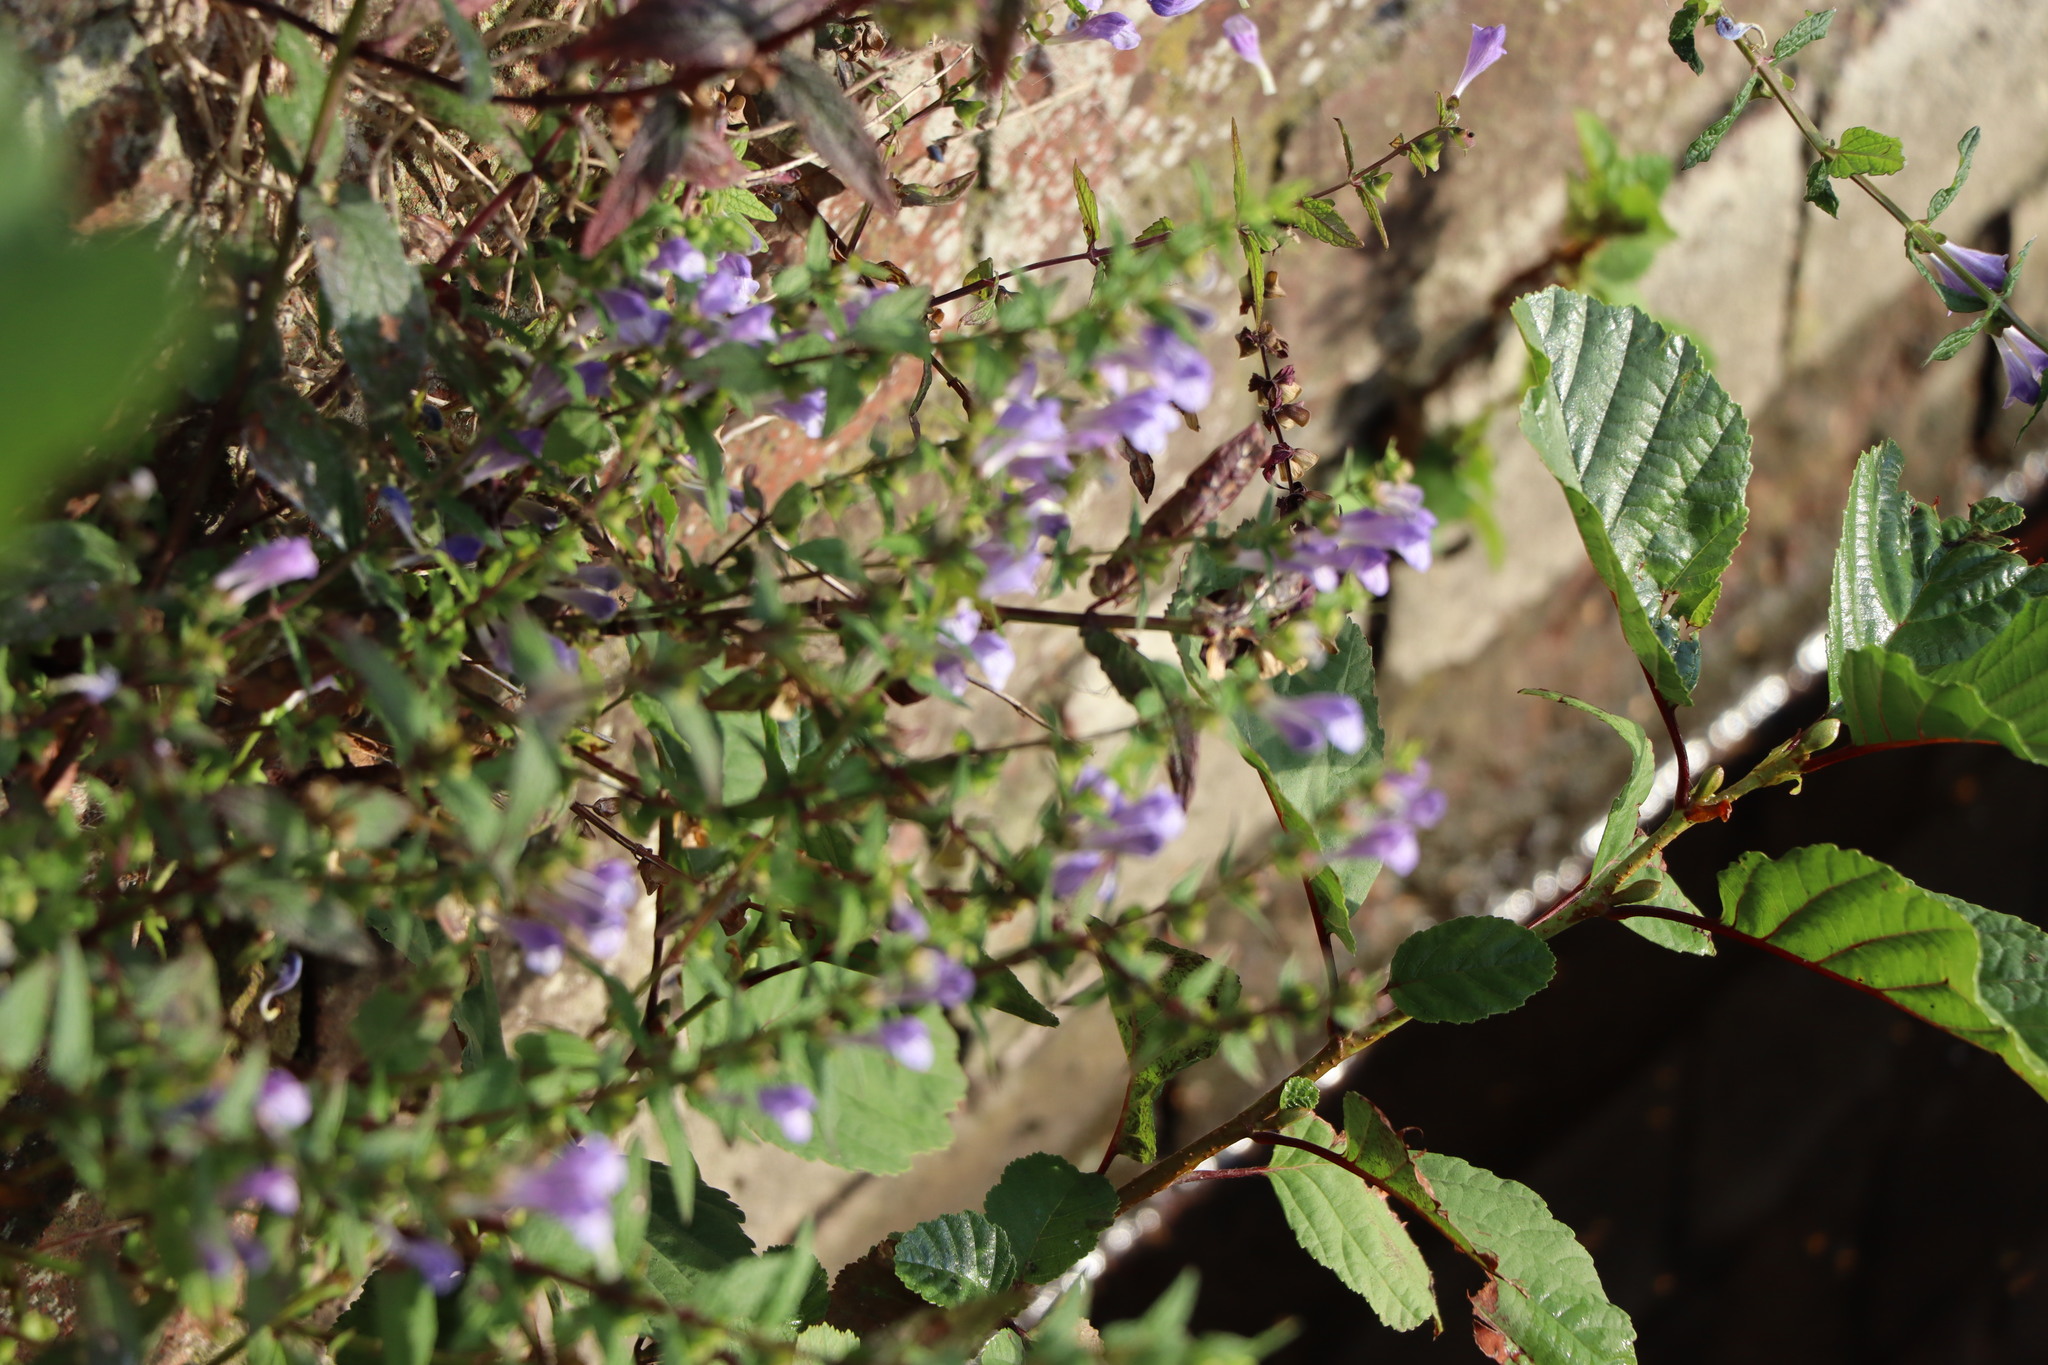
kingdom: Plantae
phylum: Tracheophyta
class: Magnoliopsida
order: Lamiales
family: Lamiaceae
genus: Scutellaria
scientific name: Scutellaria galericulata
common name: Skullcap
